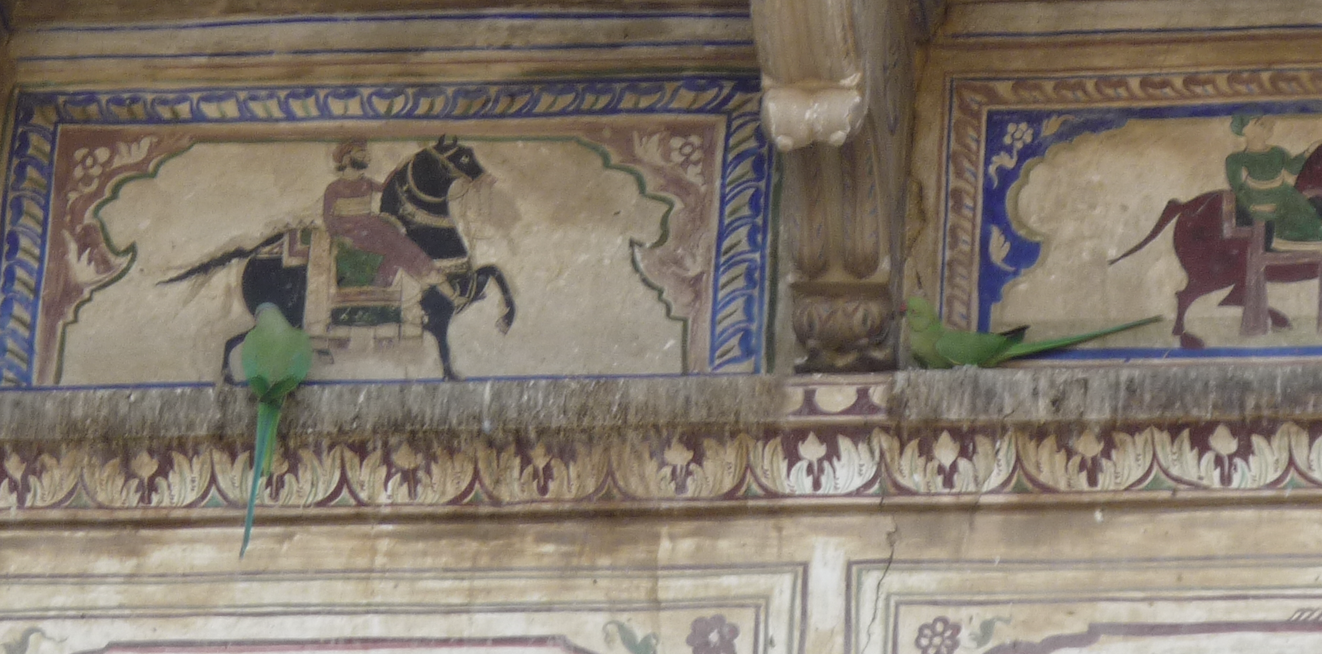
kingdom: Animalia
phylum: Chordata
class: Aves
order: Psittaciformes
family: Psittacidae
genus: Psittacula
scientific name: Psittacula krameri
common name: Rose-ringed parakeet
